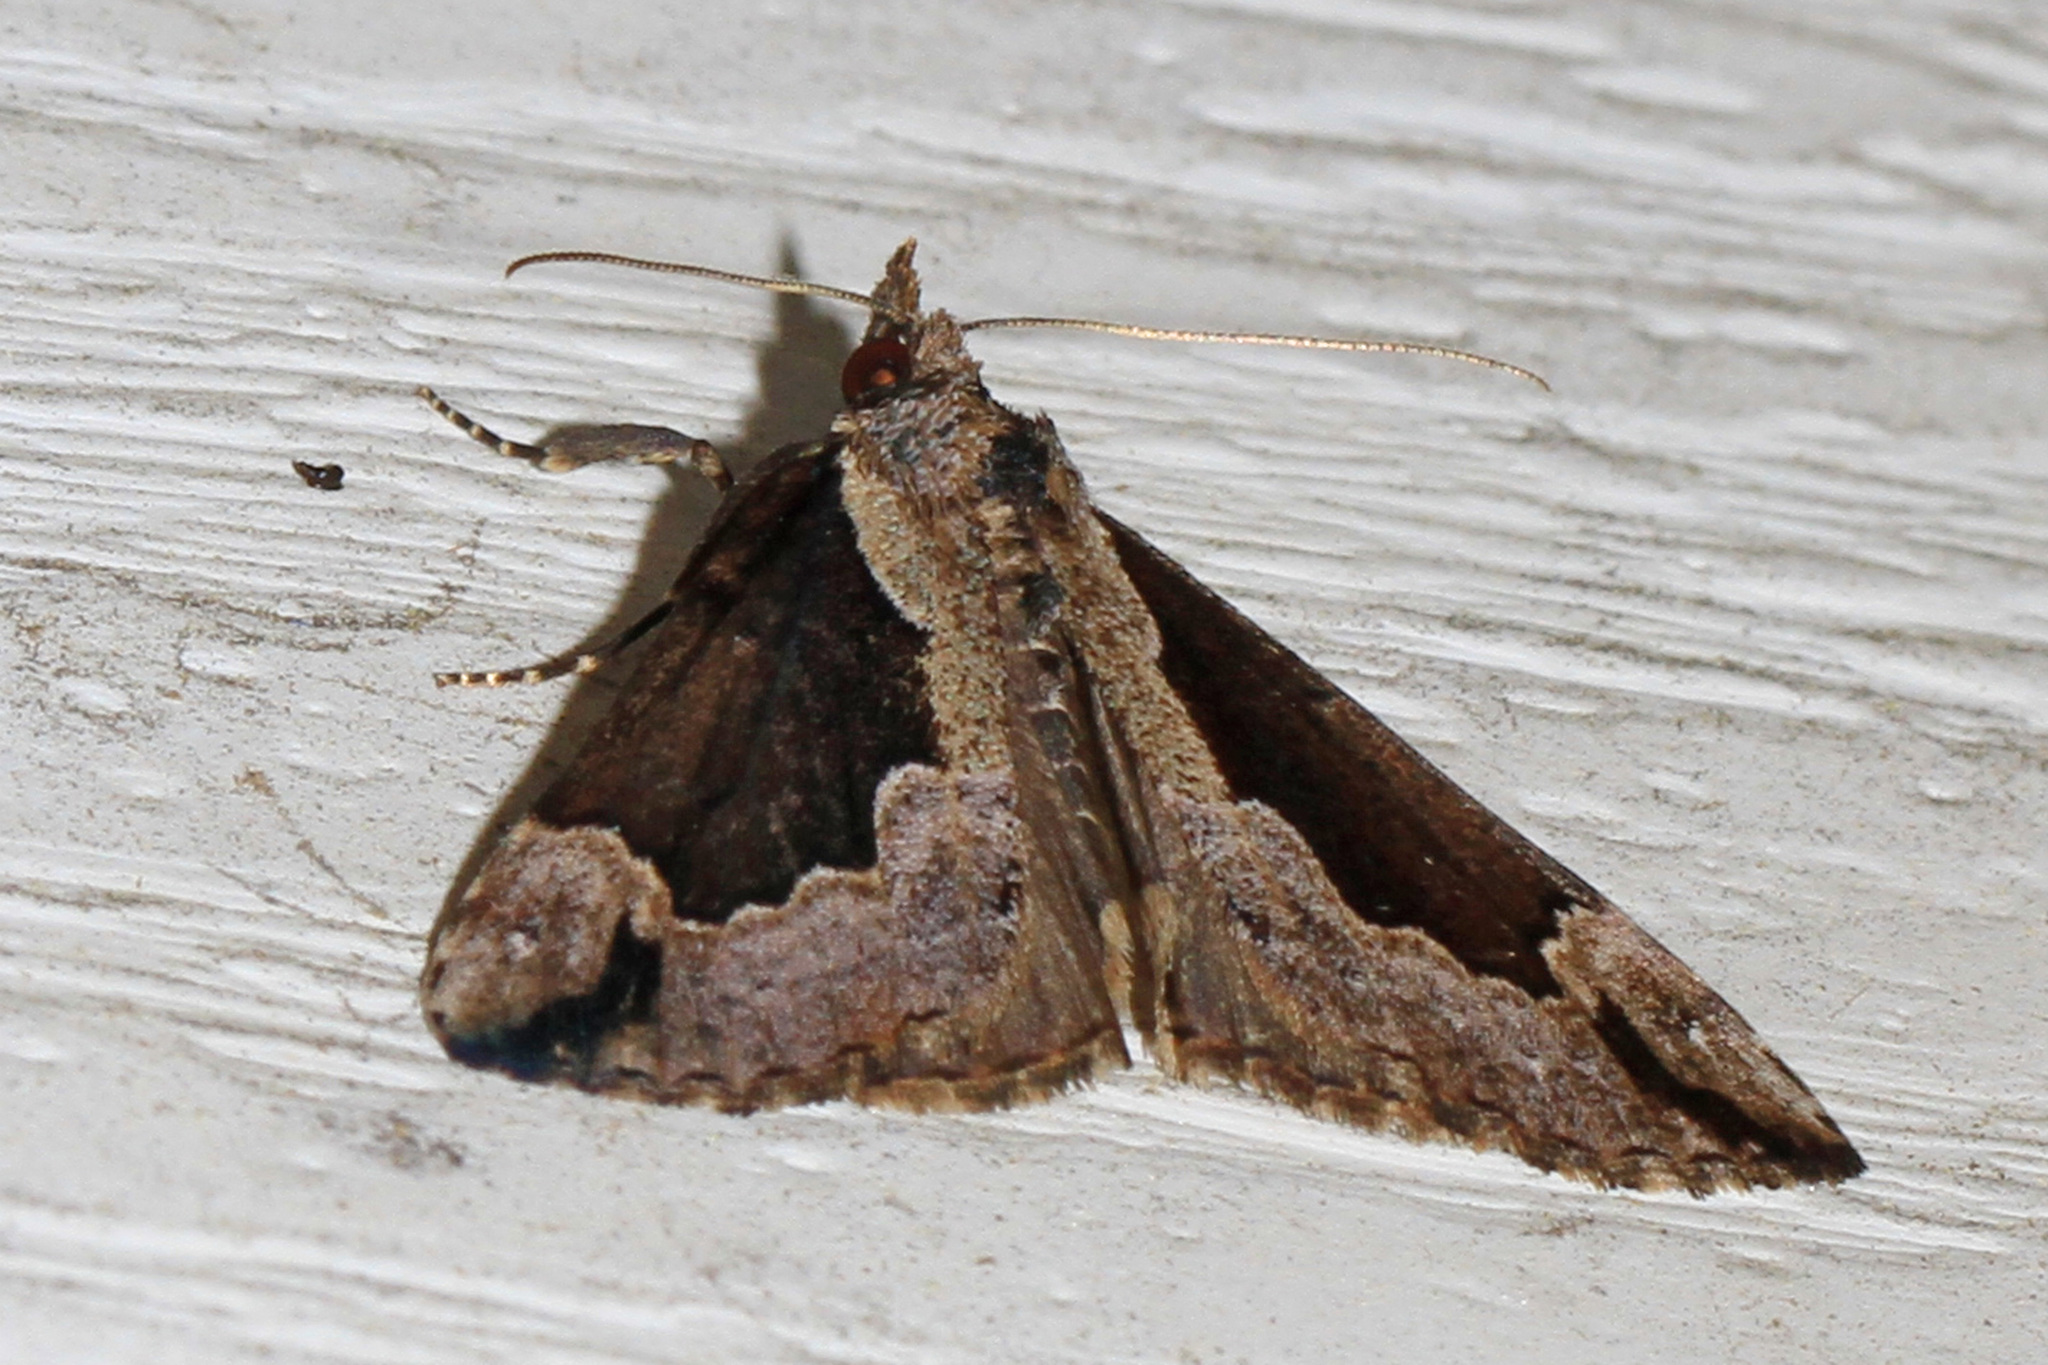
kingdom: Animalia
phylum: Arthropoda
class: Insecta
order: Lepidoptera
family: Erebidae
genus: Hypena
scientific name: Hypena baltimoralis
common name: Baltimore snout
